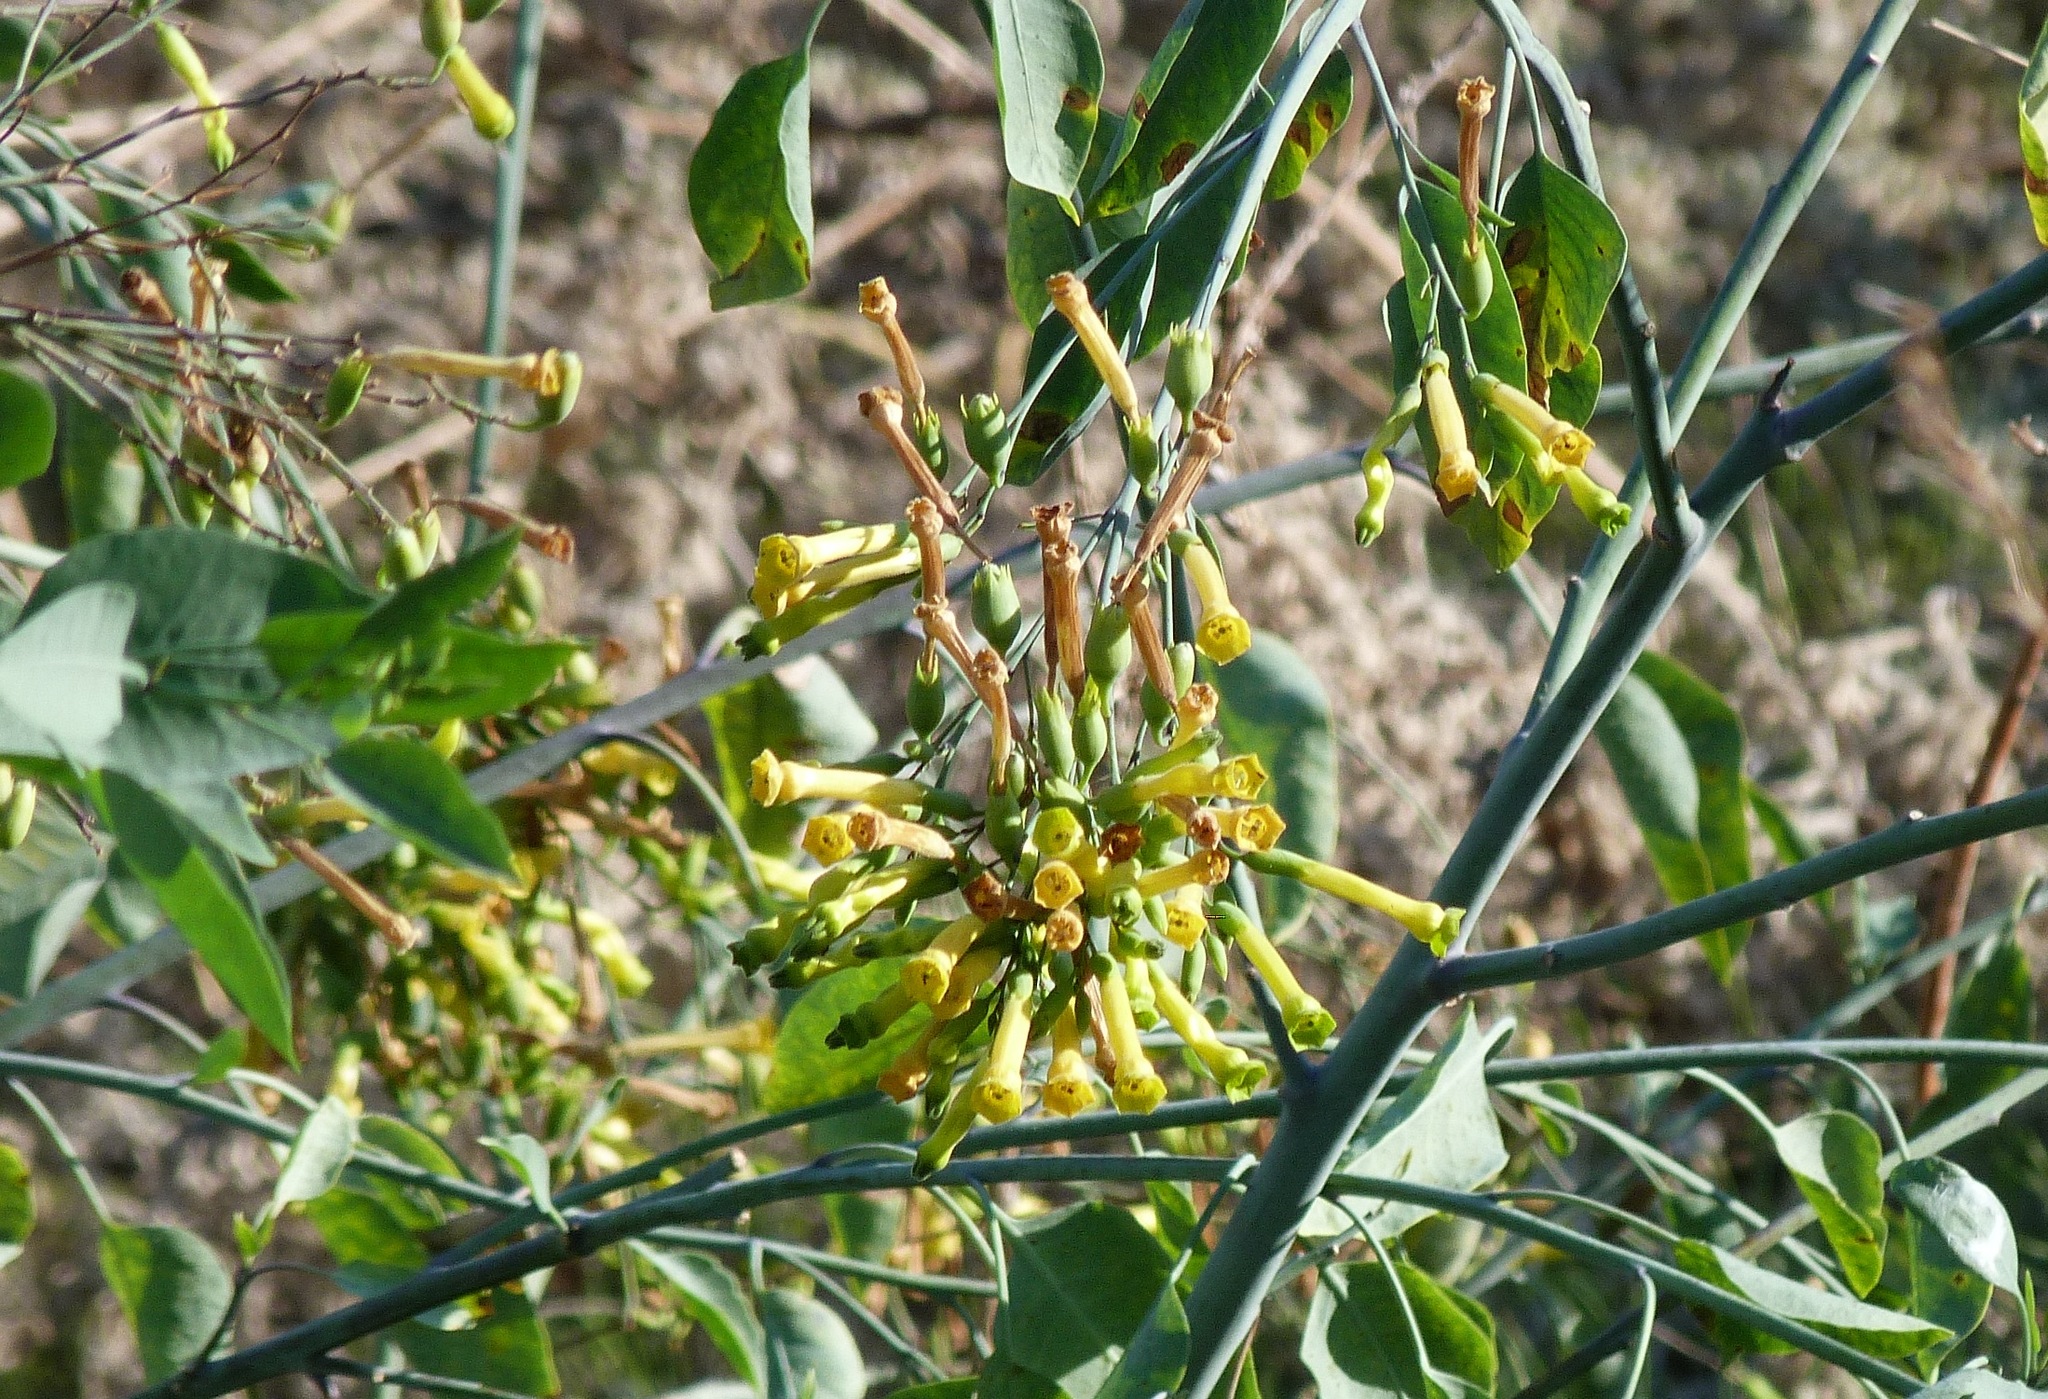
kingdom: Plantae
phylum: Tracheophyta
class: Magnoliopsida
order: Solanales
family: Solanaceae
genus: Nicotiana
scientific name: Nicotiana glauca
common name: Tree tobacco
